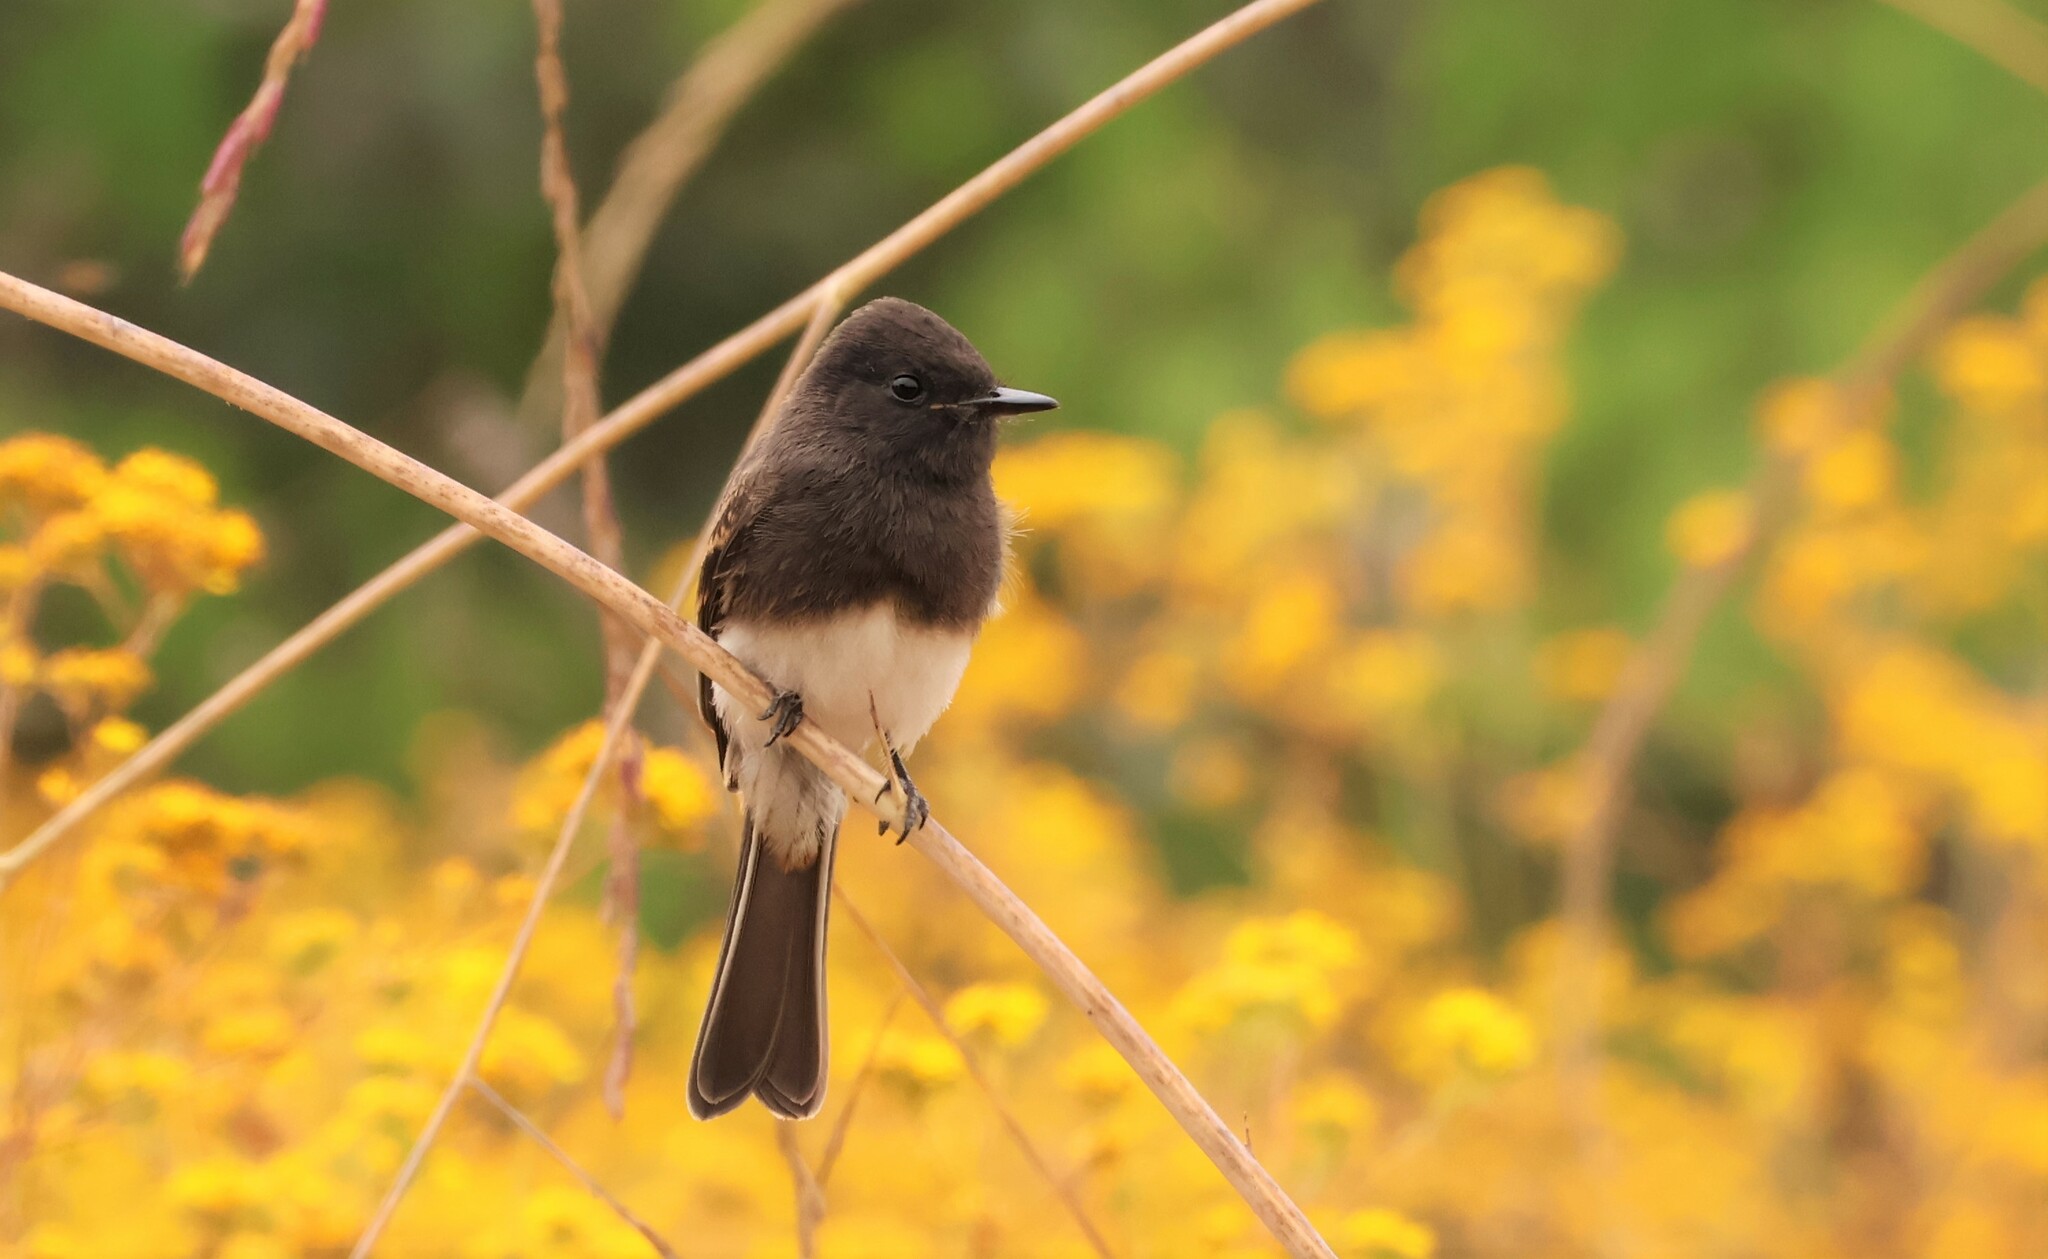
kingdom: Animalia
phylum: Chordata
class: Aves
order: Passeriformes
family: Tyrannidae
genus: Sayornis
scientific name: Sayornis nigricans
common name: Black phoebe
